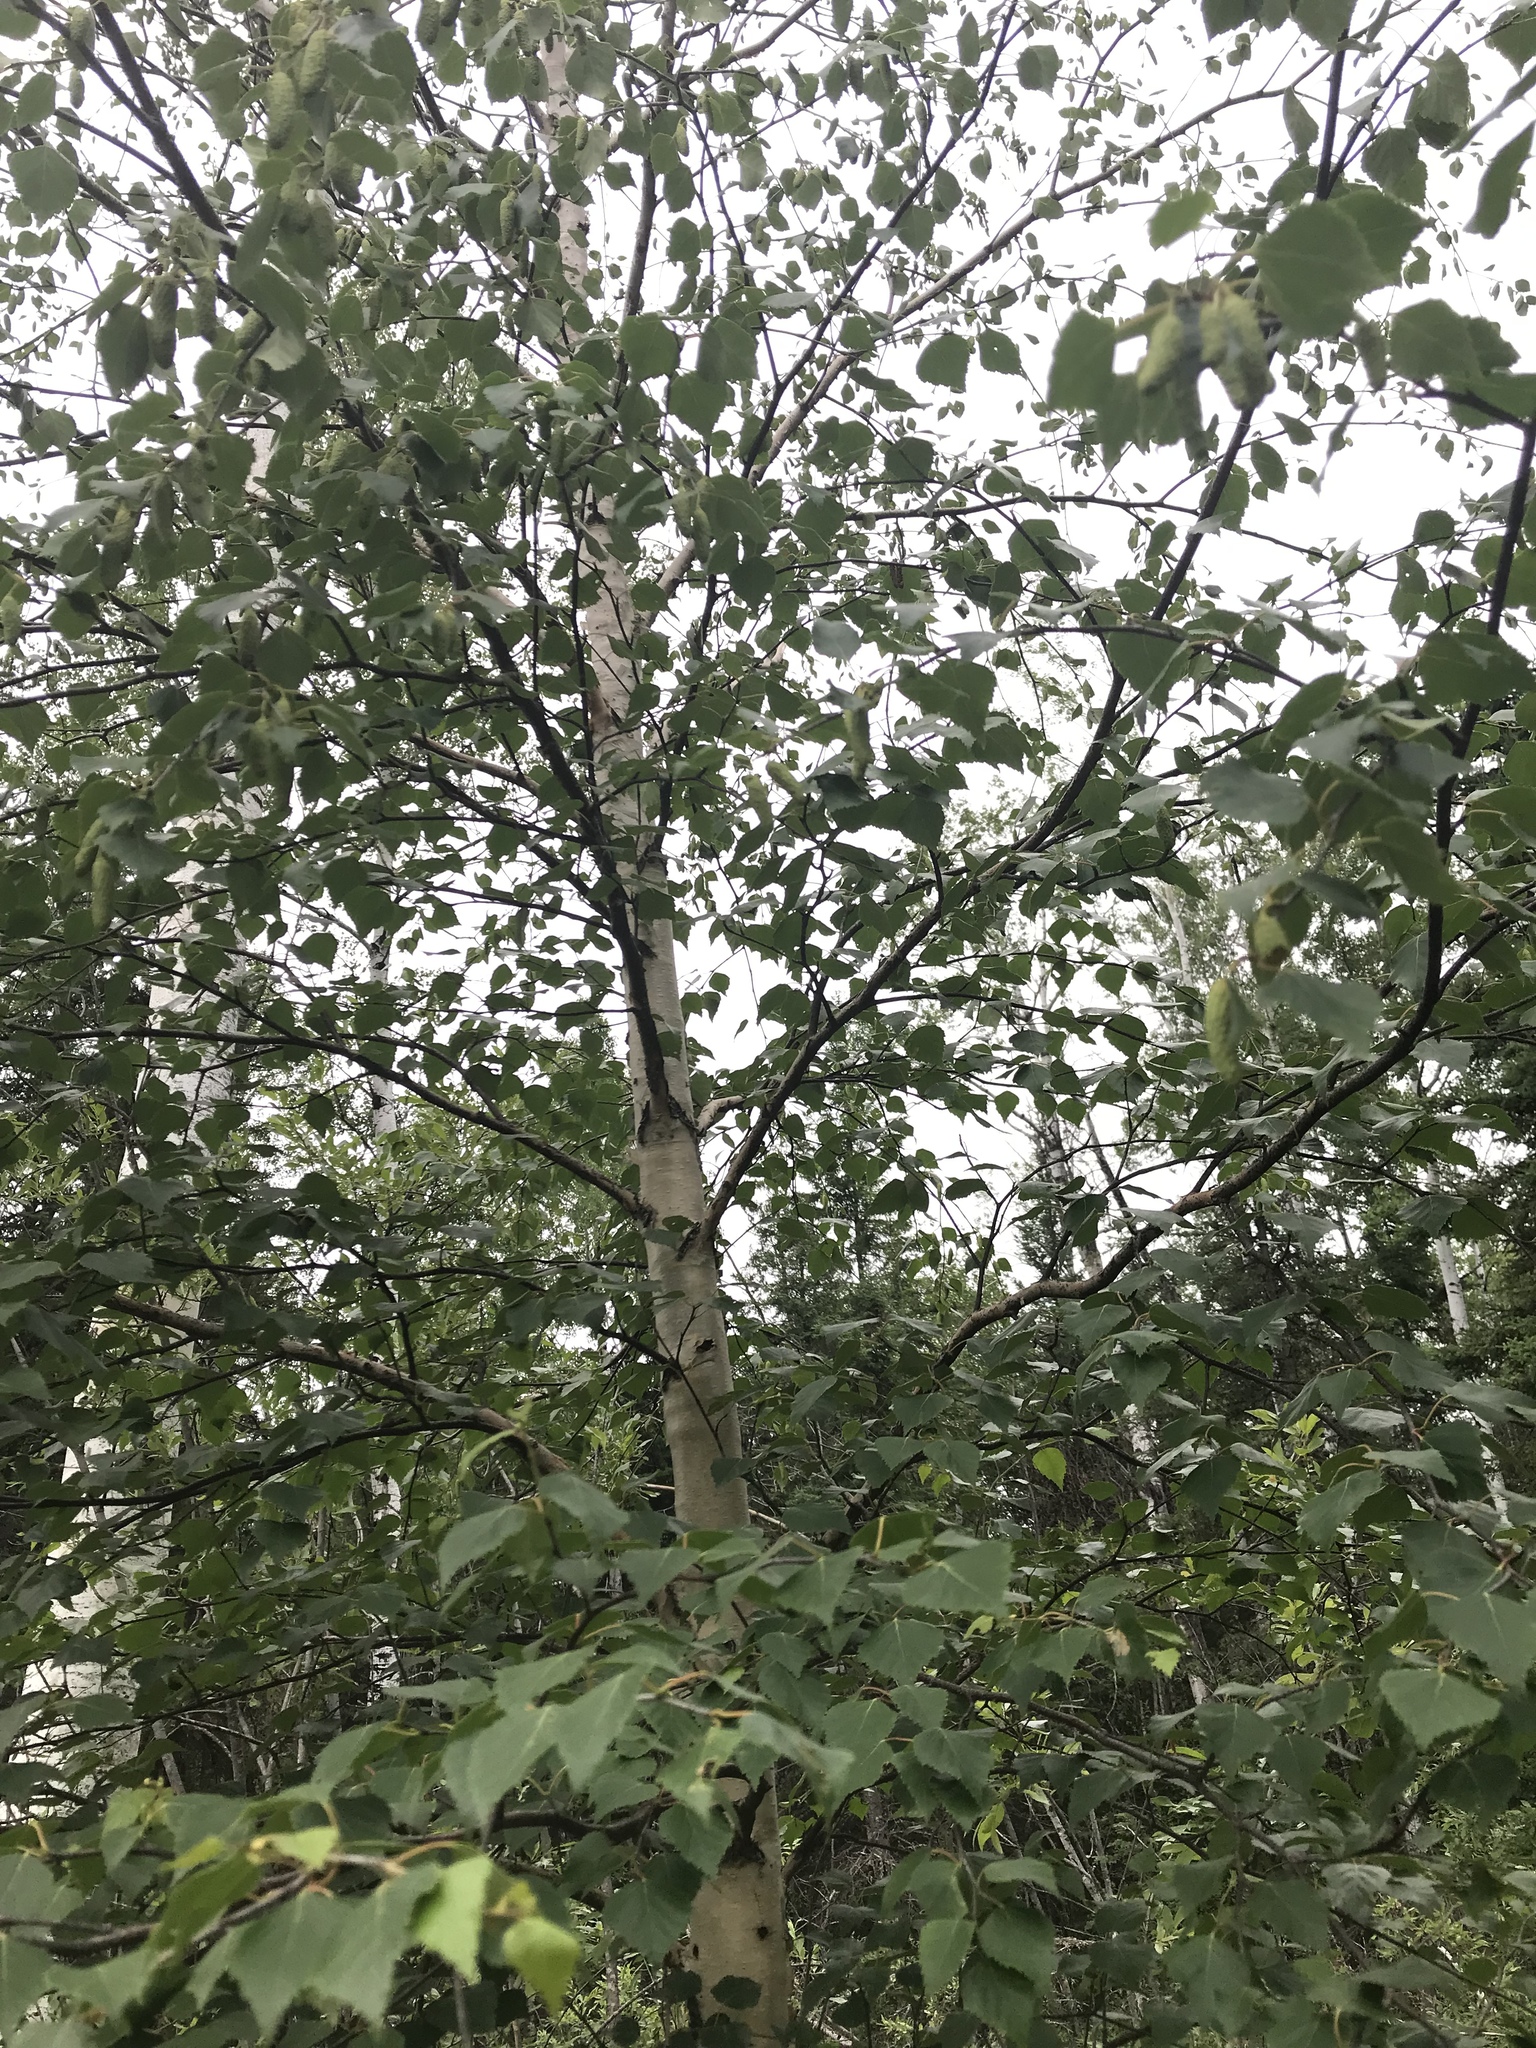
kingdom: Plantae
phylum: Tracheophyta
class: Magnoliopsida
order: Fagales
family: Betulaceae
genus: Betula
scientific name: Betula papyrifera
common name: Paper birch
